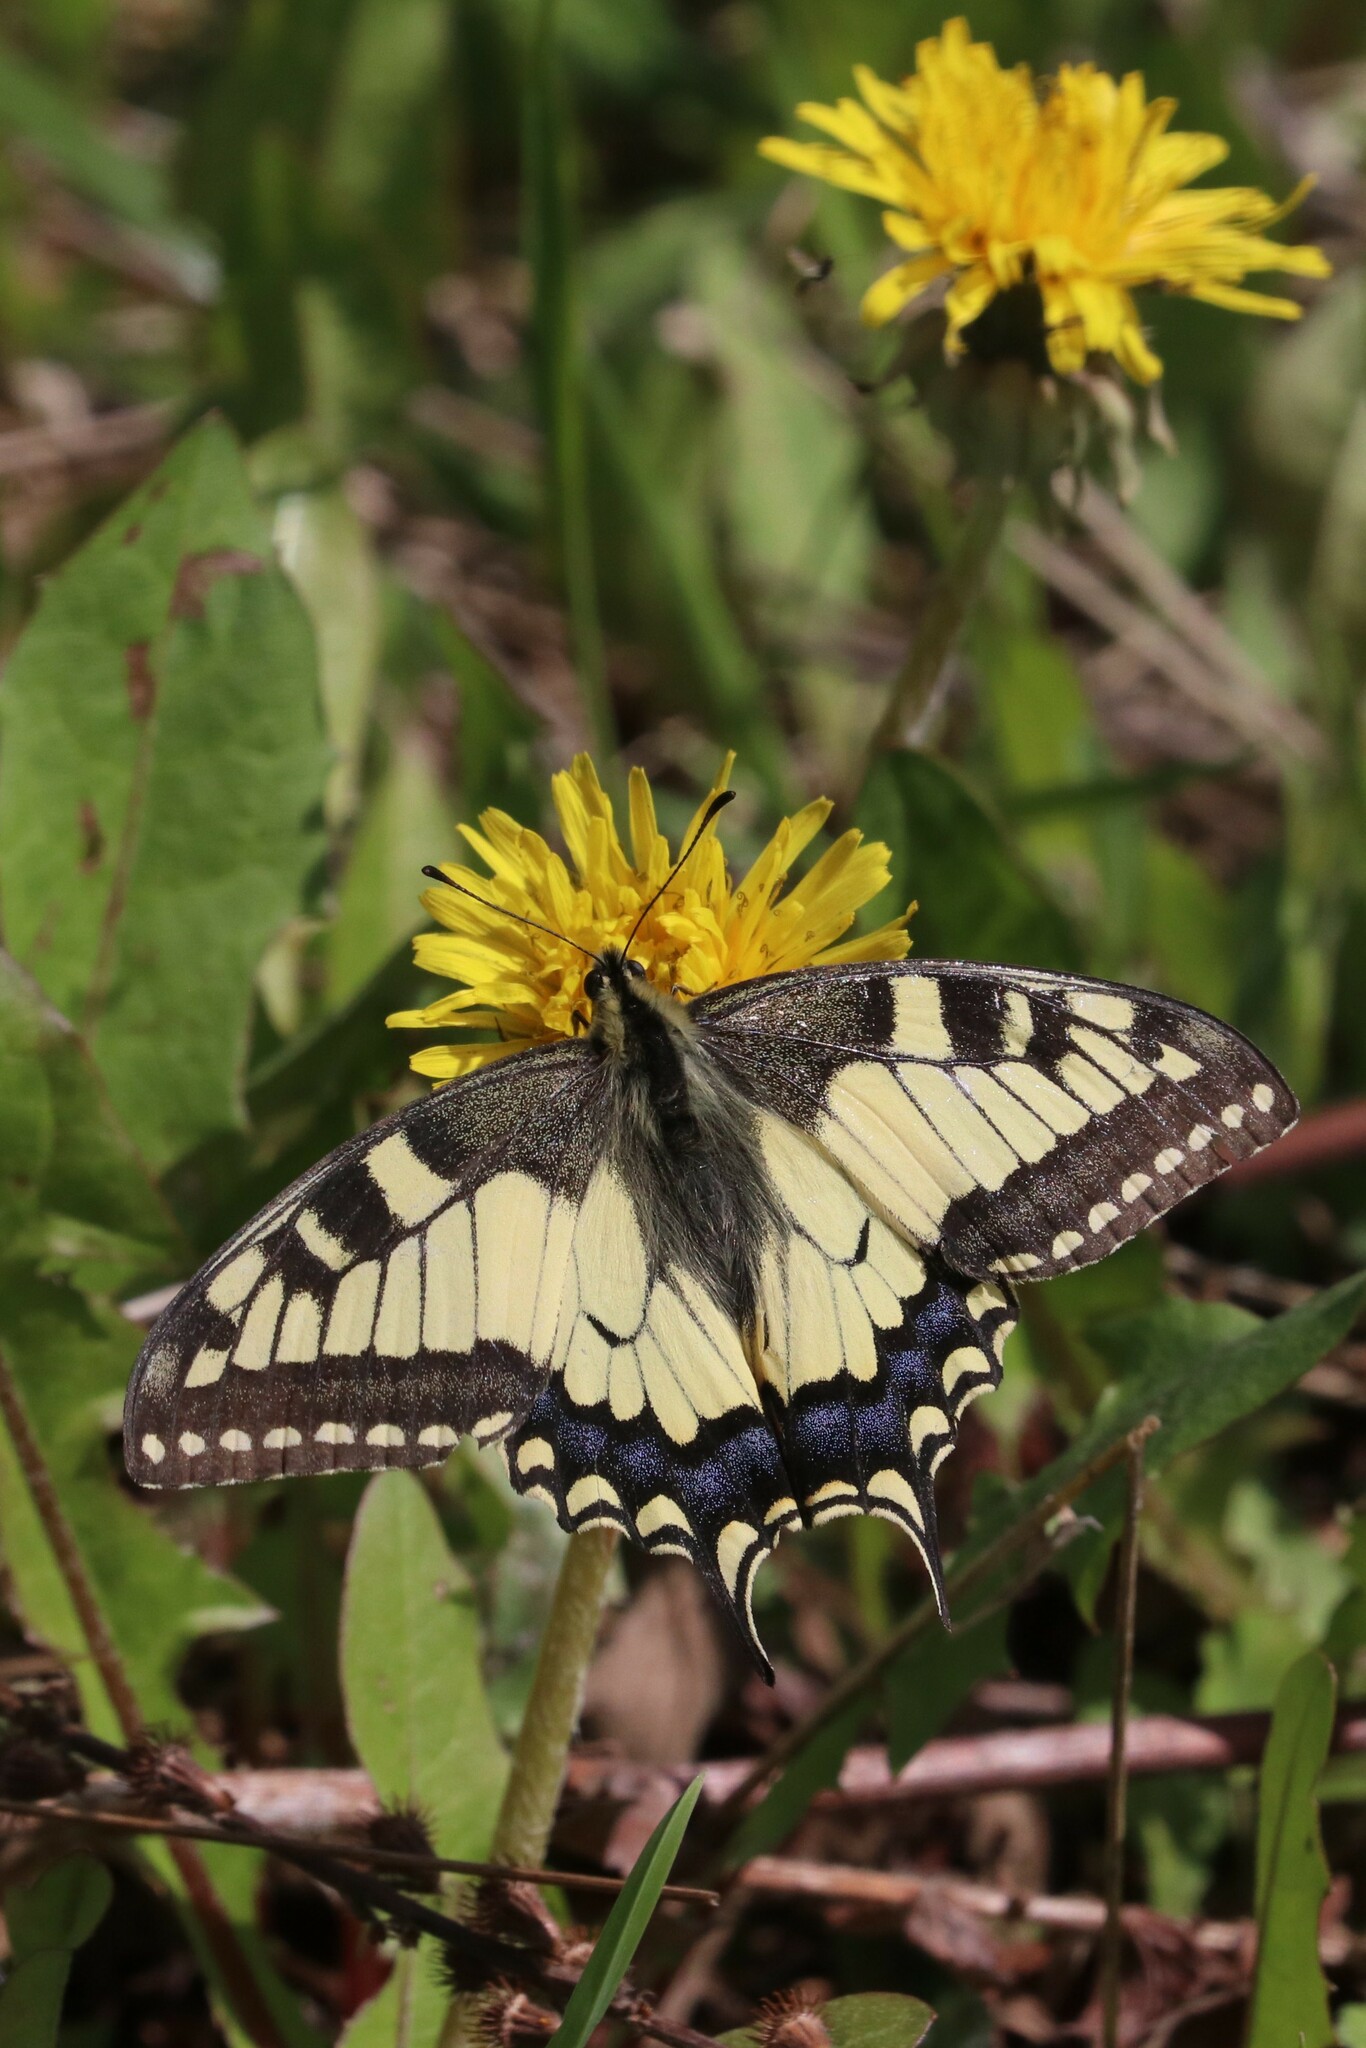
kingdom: Animalia
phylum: Arthropoda
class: Insecta
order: Lepidoptera
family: Papilionidae
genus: Papilio
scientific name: Papilio machaon
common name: Swallowtail
